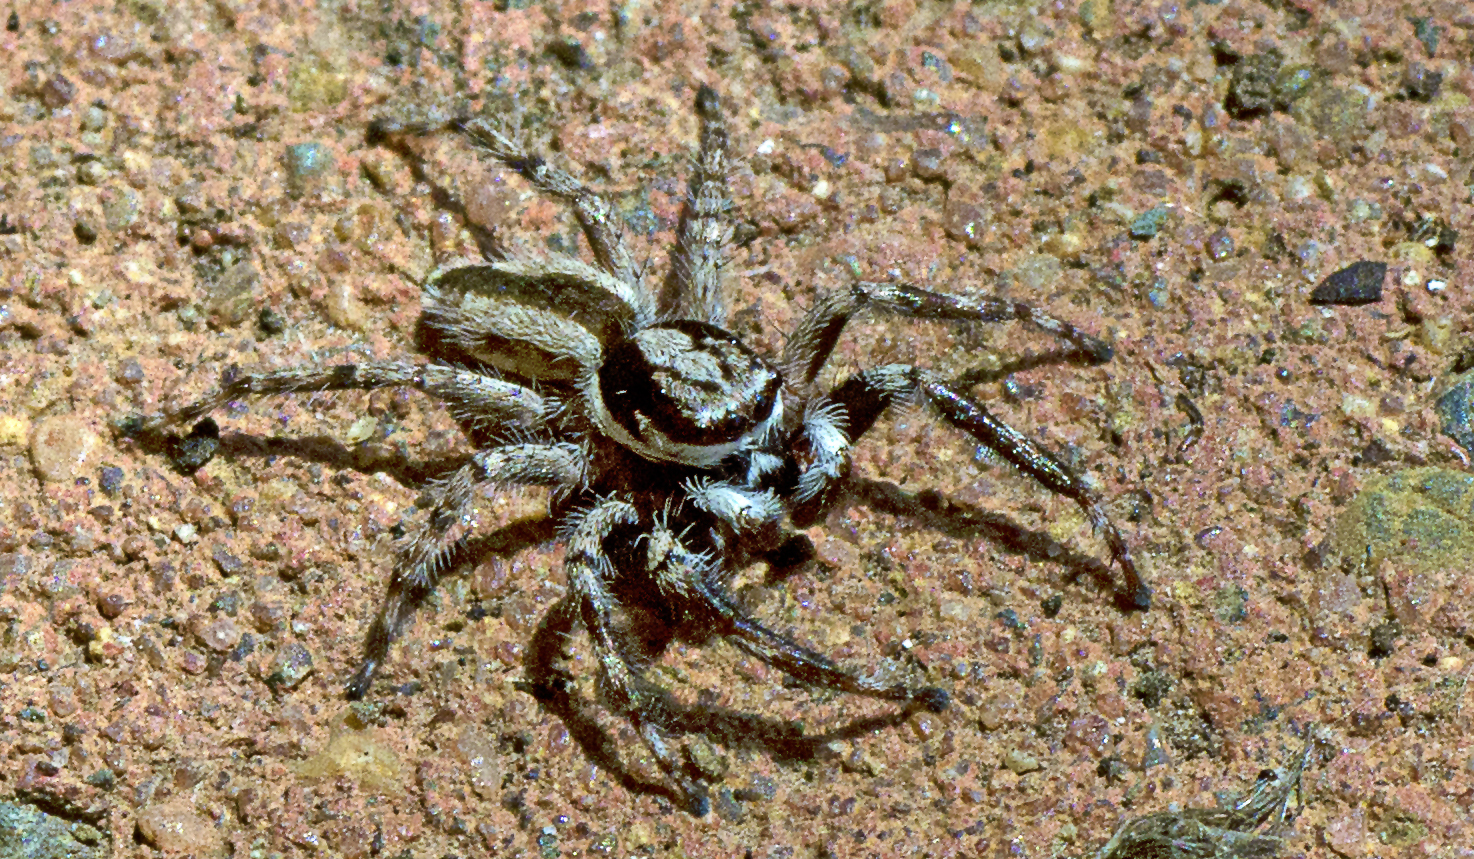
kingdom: Animalia
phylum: Arthropoda
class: Arachnida
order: Araneae
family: Salticidae
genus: Menemerus
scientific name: Menemerus bivittatus
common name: Gray wall jumper
